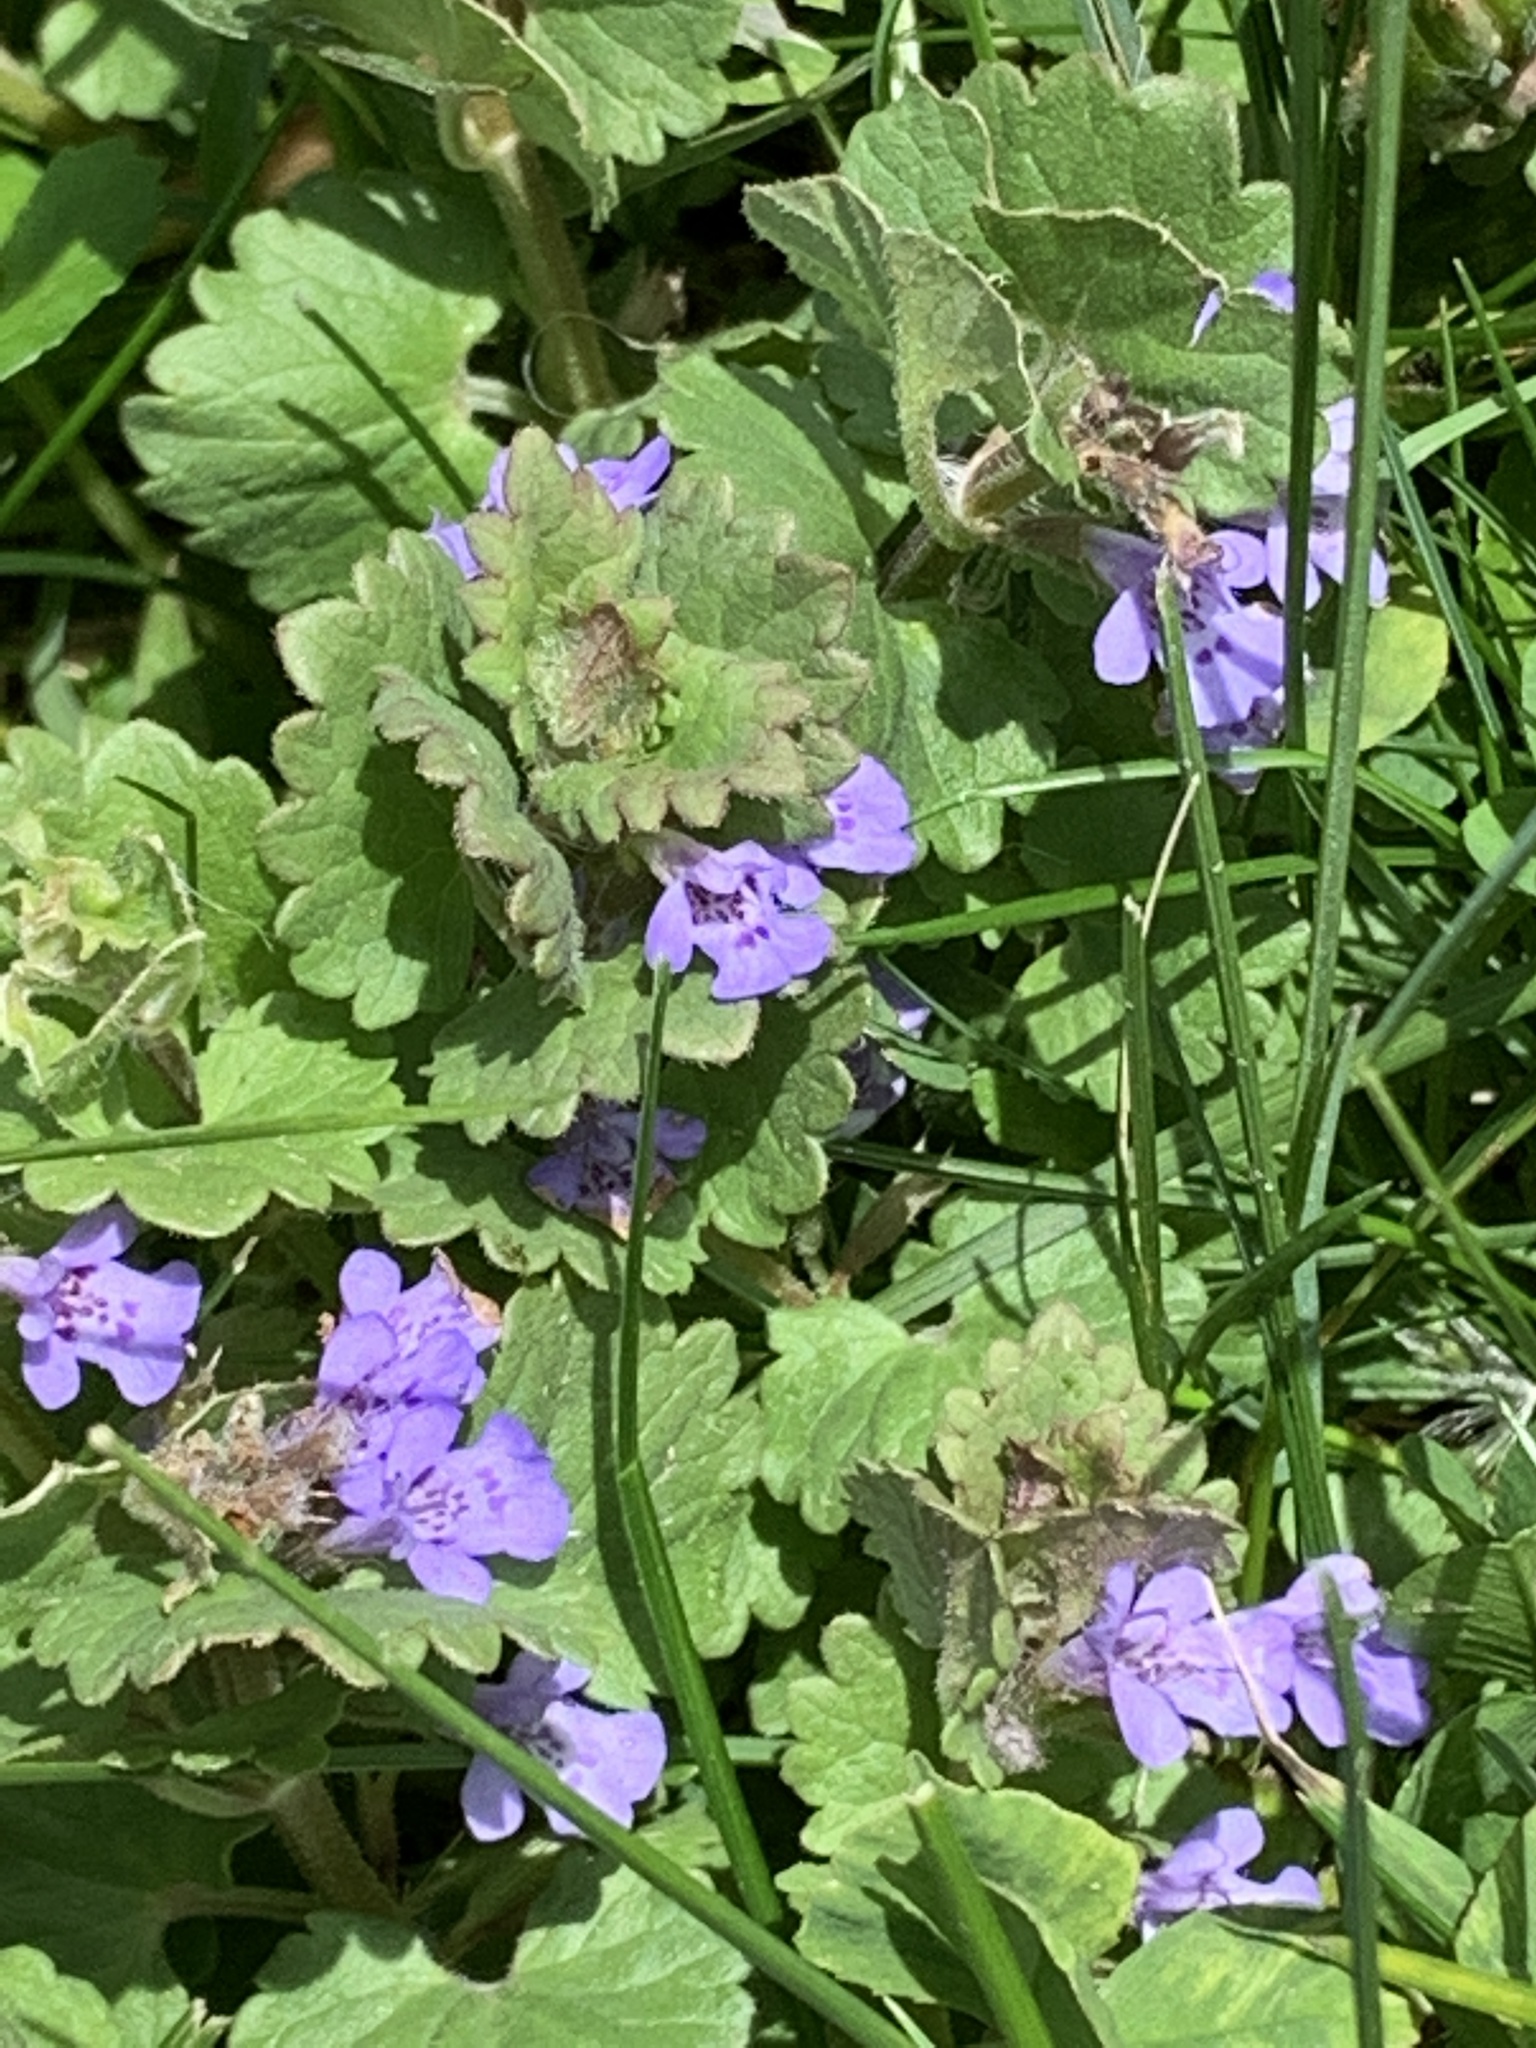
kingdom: Plantae
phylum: Tracheophyta
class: Magnoliopsida
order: Lamiales
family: Lamiaceae
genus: Glechoma
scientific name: Glechoma hederacea
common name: Ground ivy
